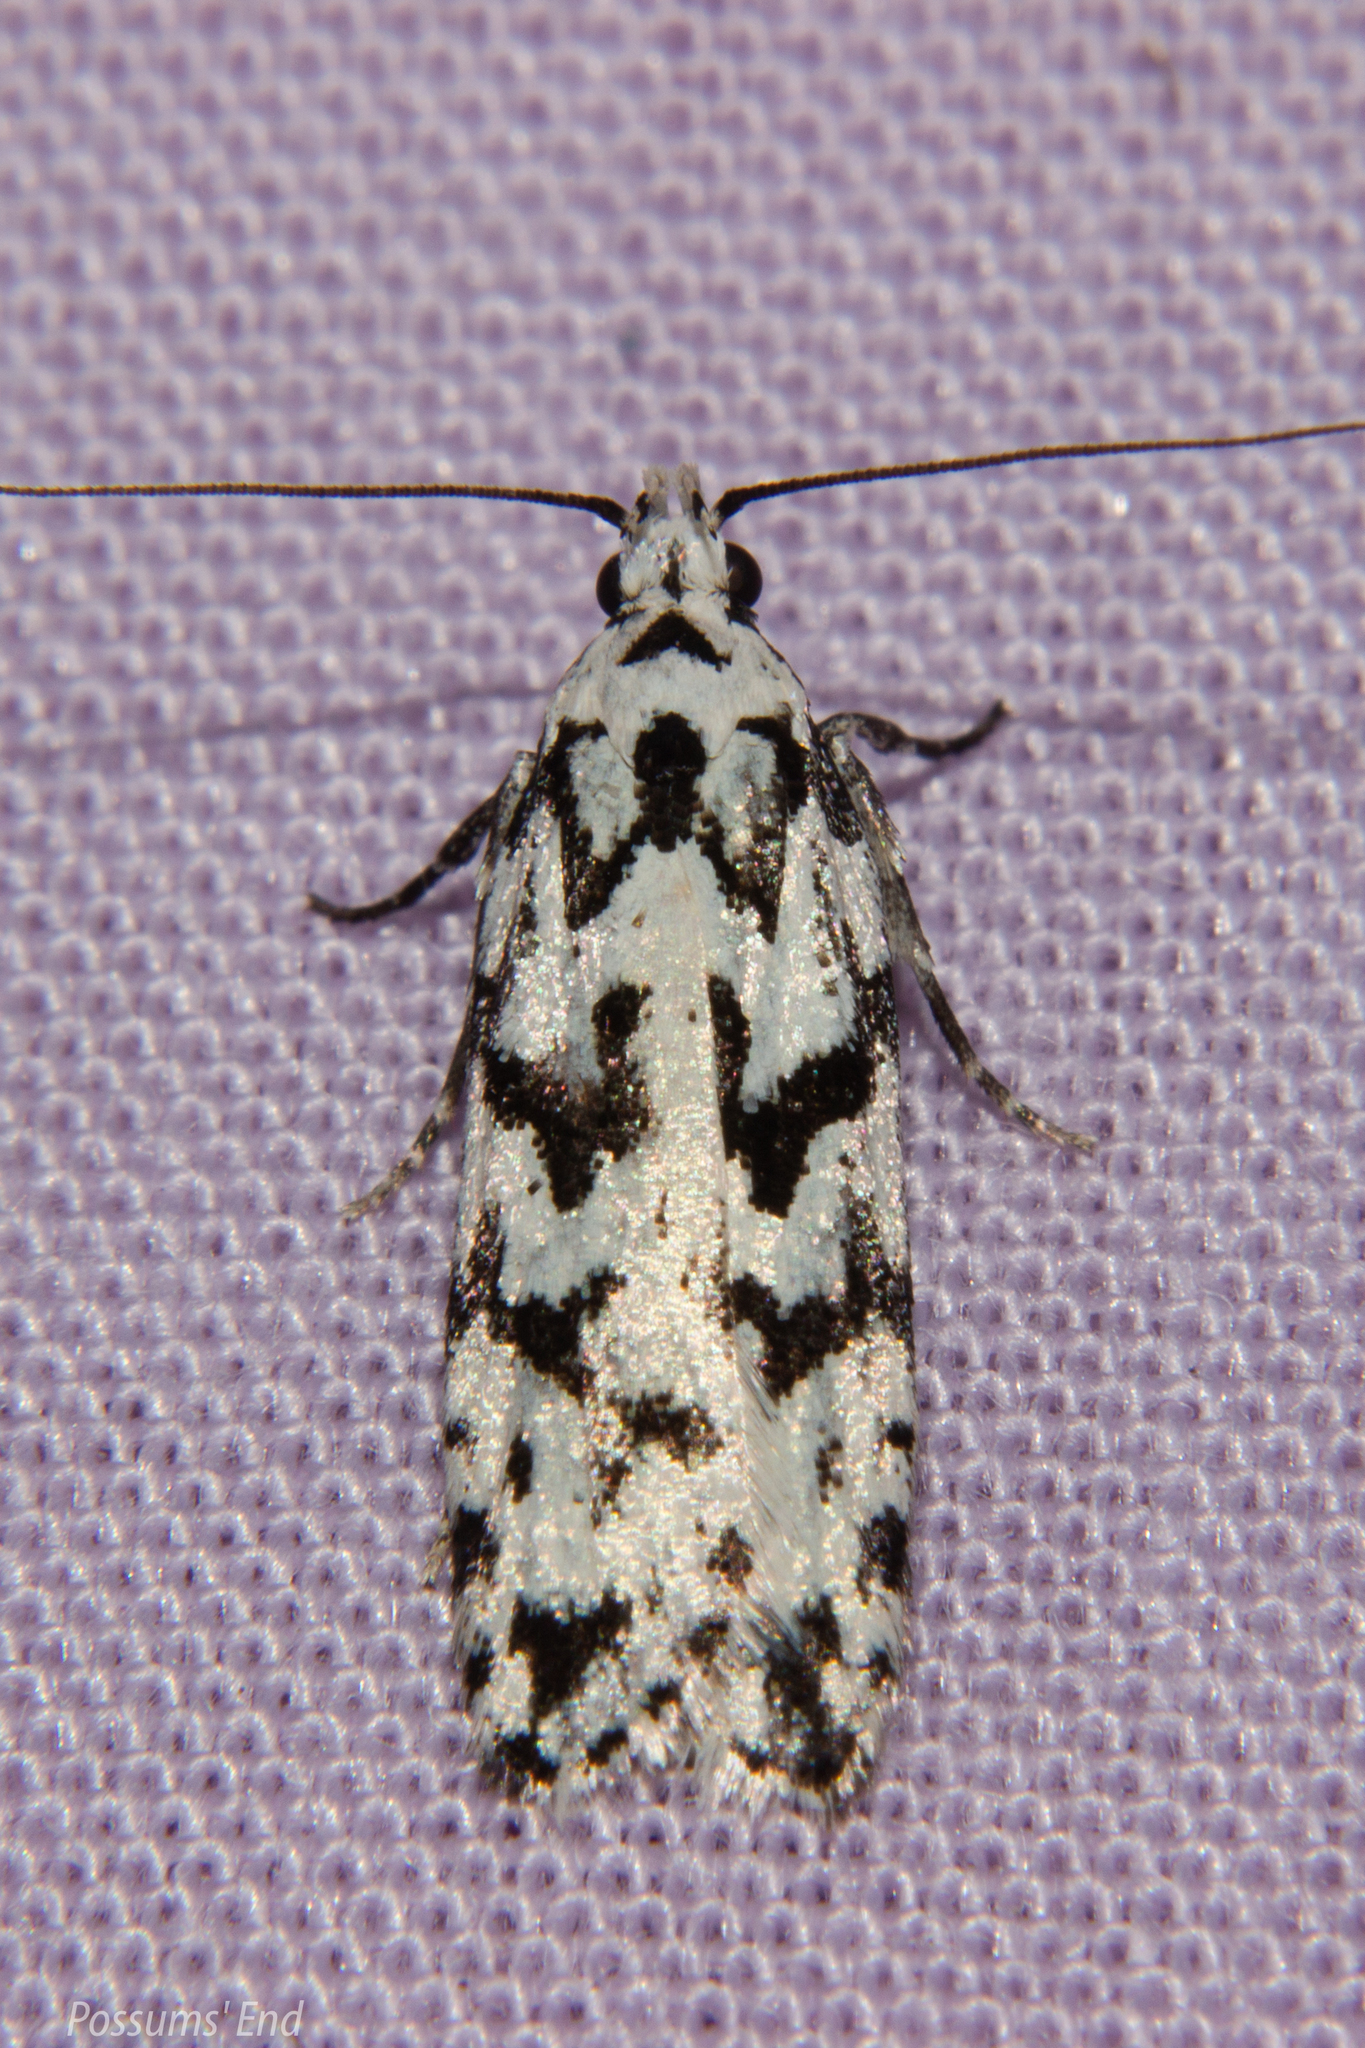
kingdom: Animalia
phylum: Arthropoda
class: Insecta
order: Lepidoptera
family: Oecophoridae
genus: Izatha
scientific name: Izatha katadiktya
